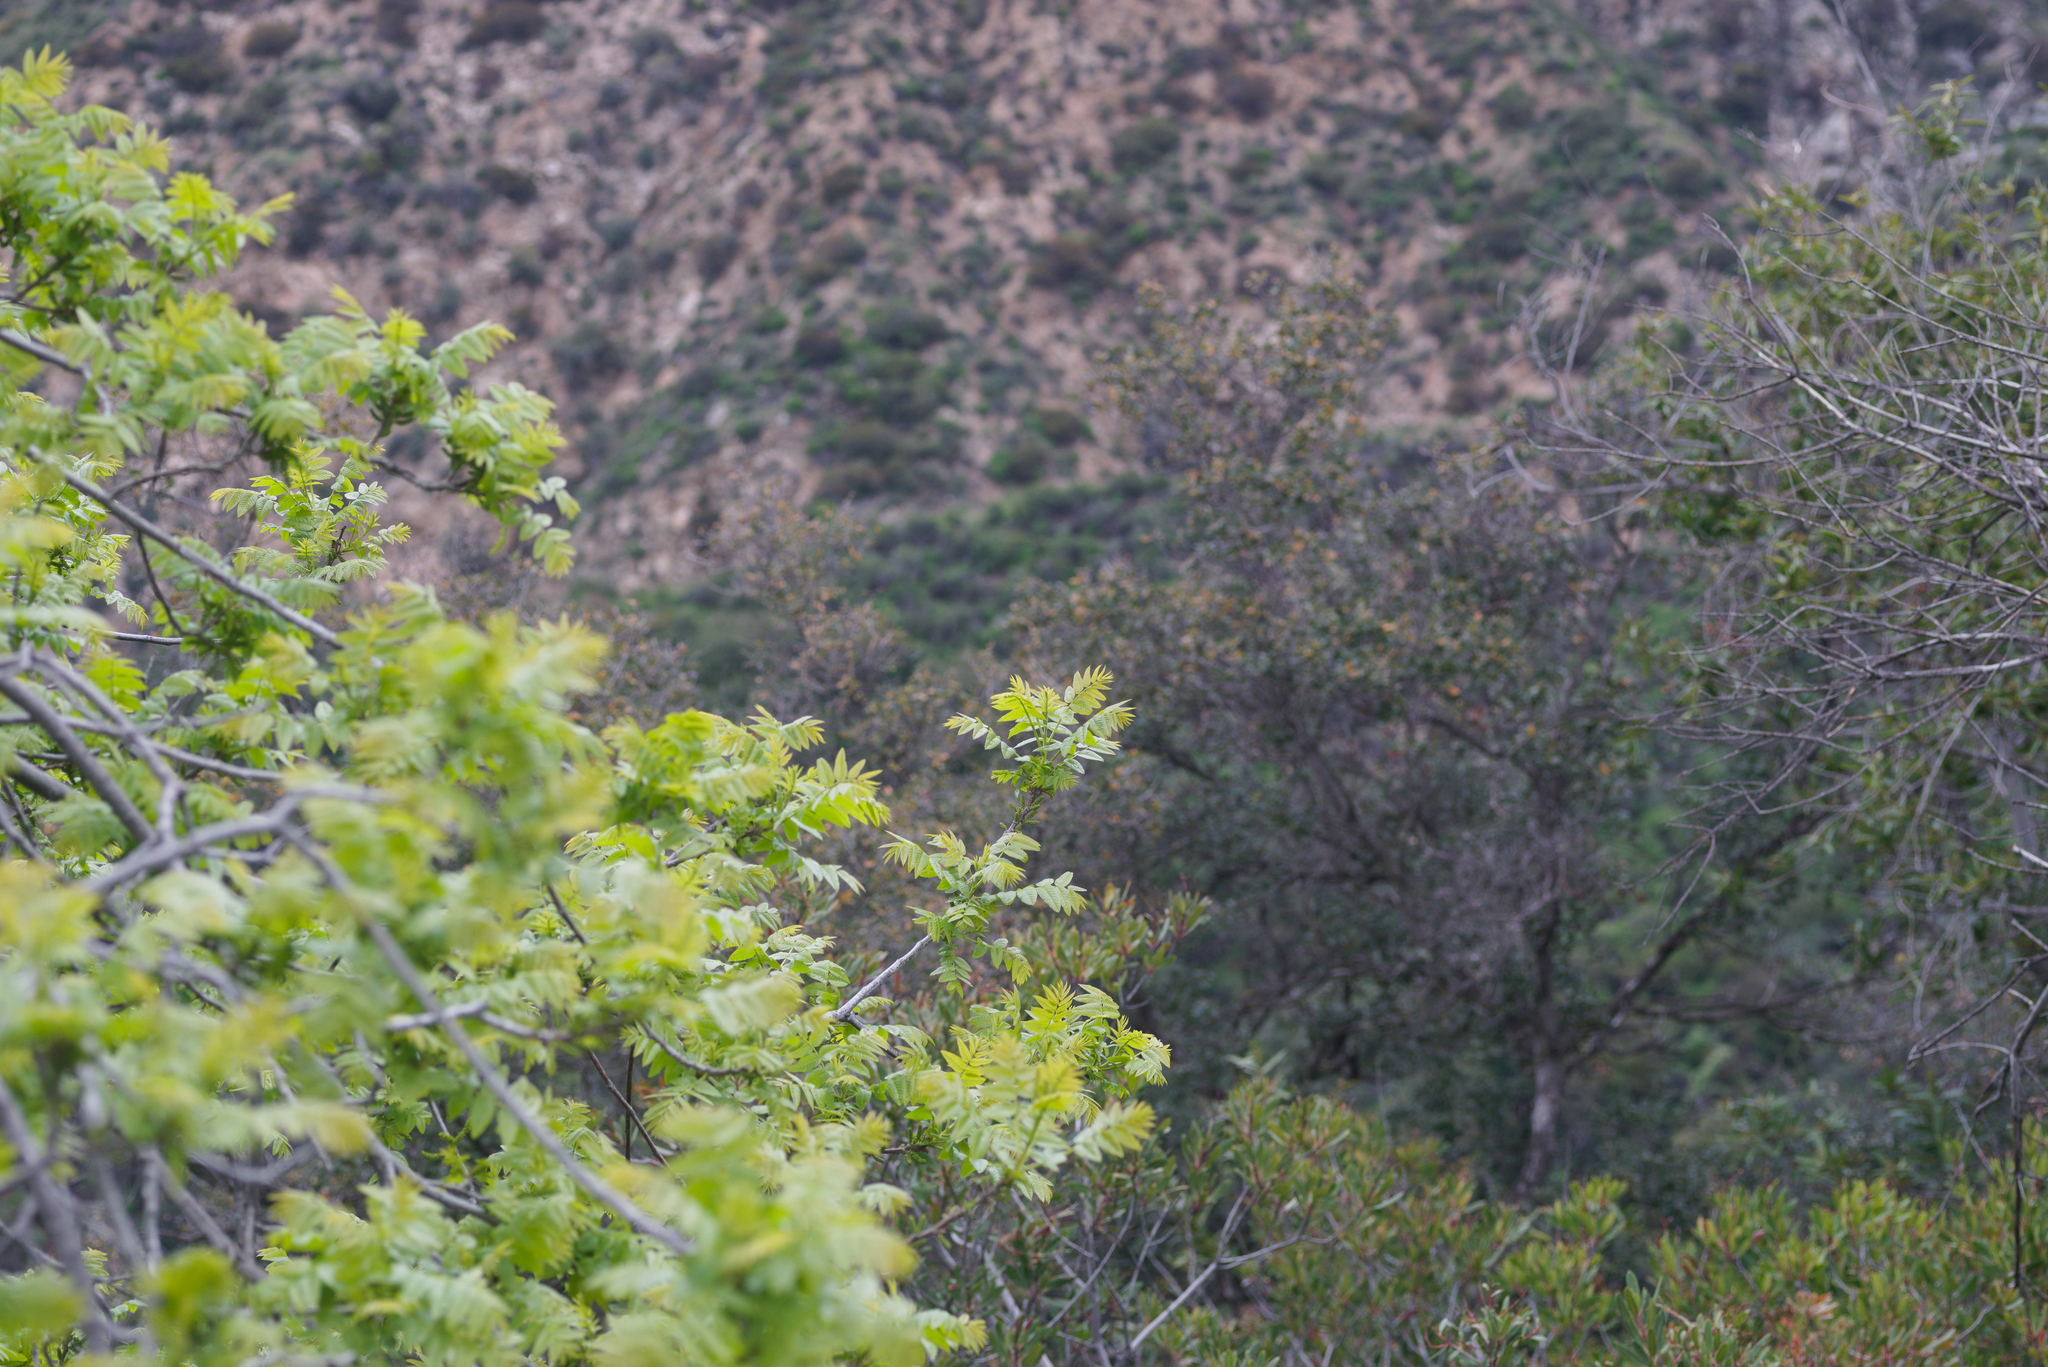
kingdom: Plantae
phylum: Tracheophyta
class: Magnoliopsida
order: Fagales
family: Juglandaceae
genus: Juglans
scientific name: Juglans californica
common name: Southern california black walnut
